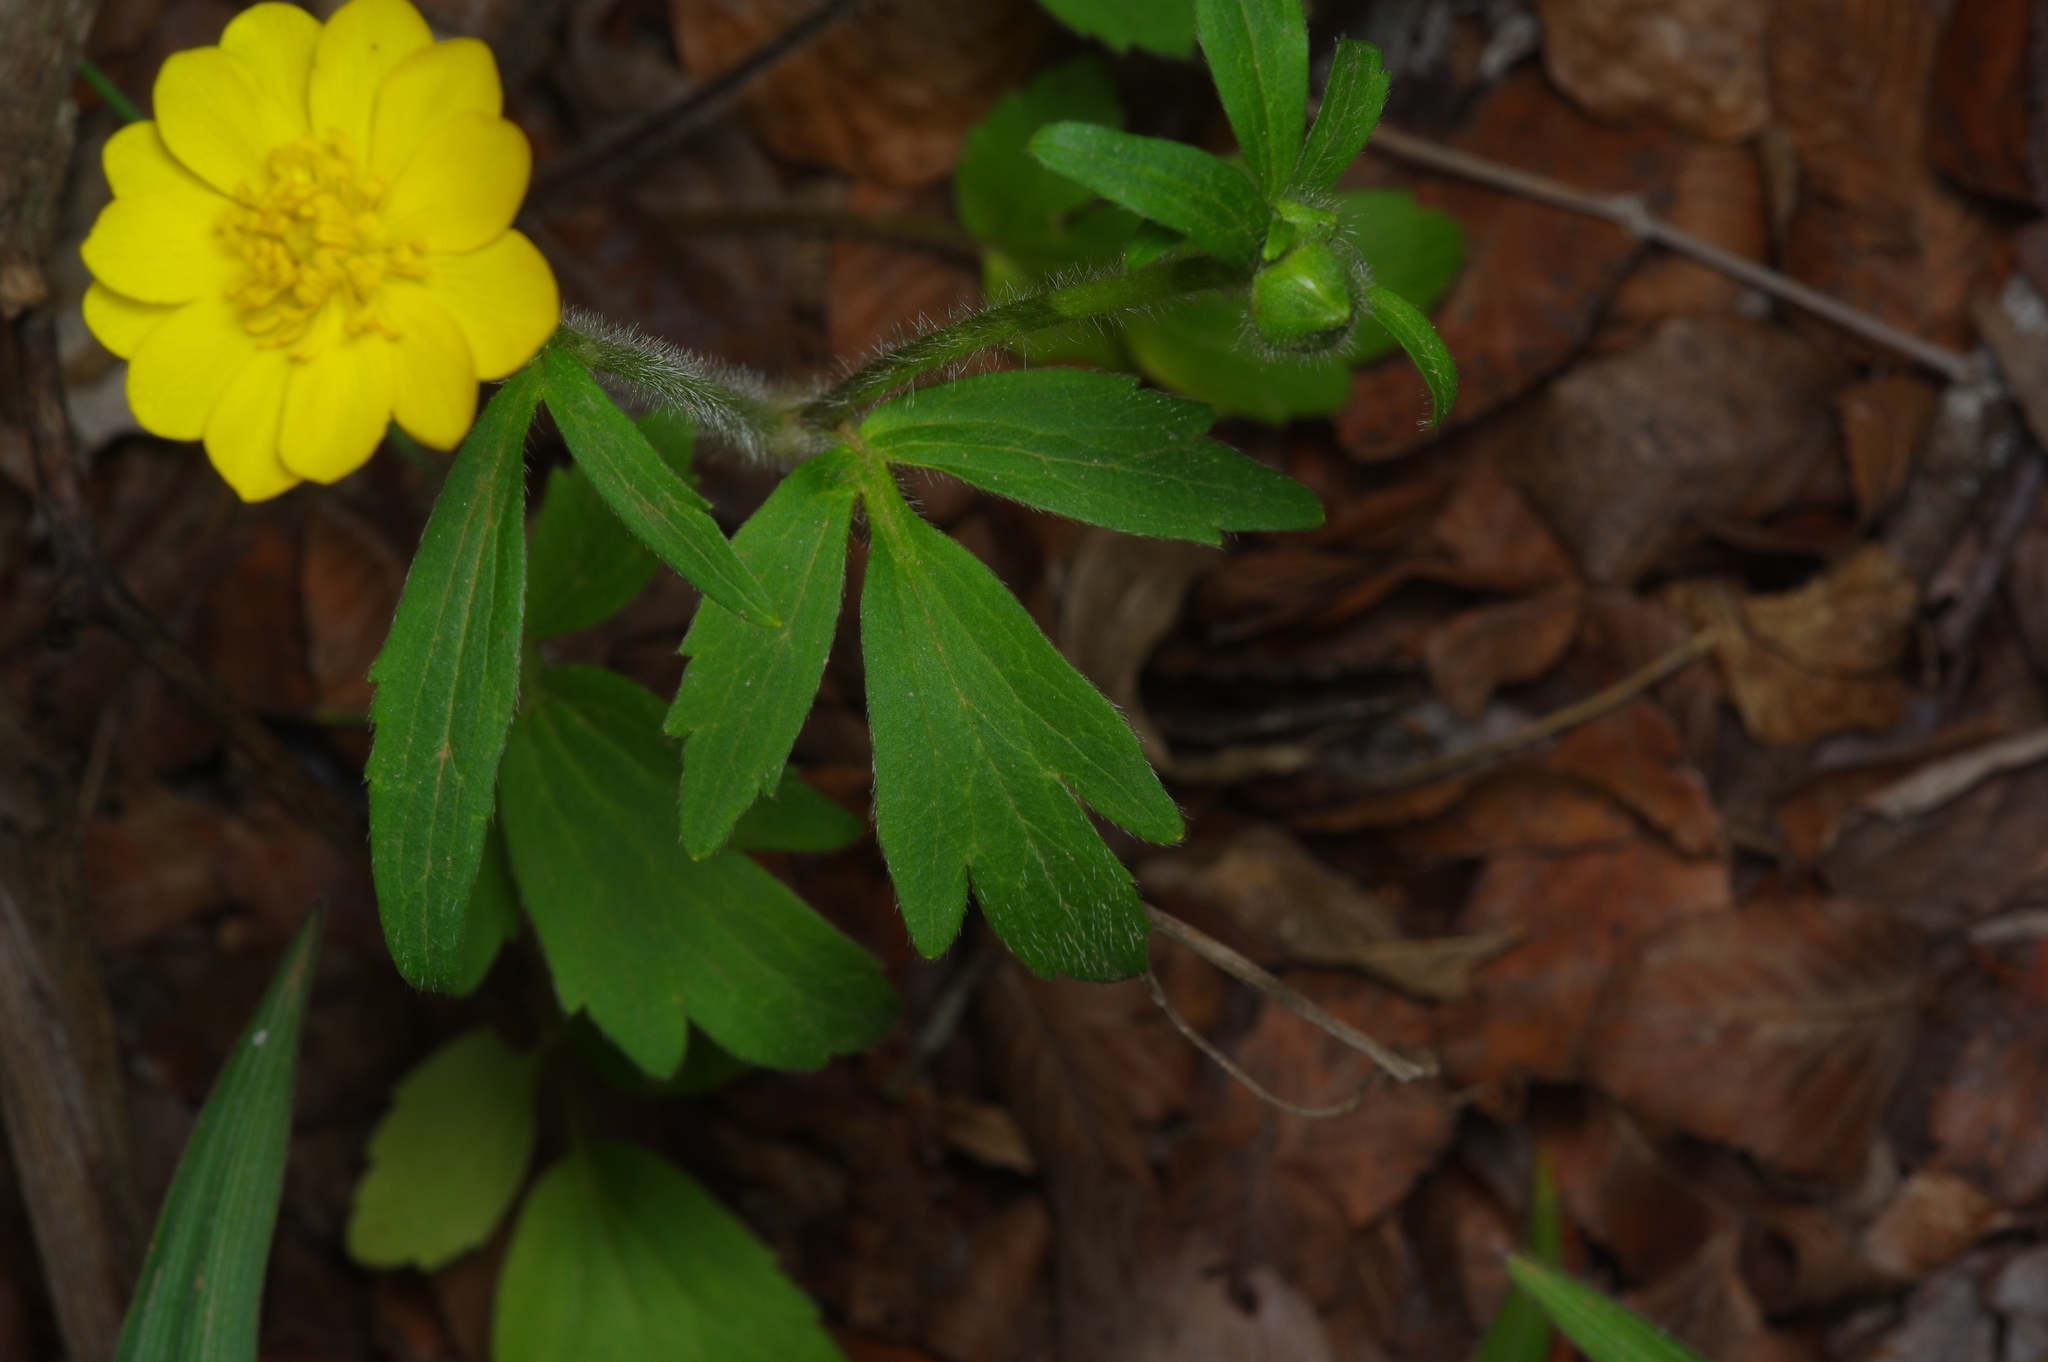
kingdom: Plantae
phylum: Tracheophyta
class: Magnoliopsida
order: Ranunculales
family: Ranunculaceae
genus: Ranunculus
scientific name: Ranunculus macranthus
